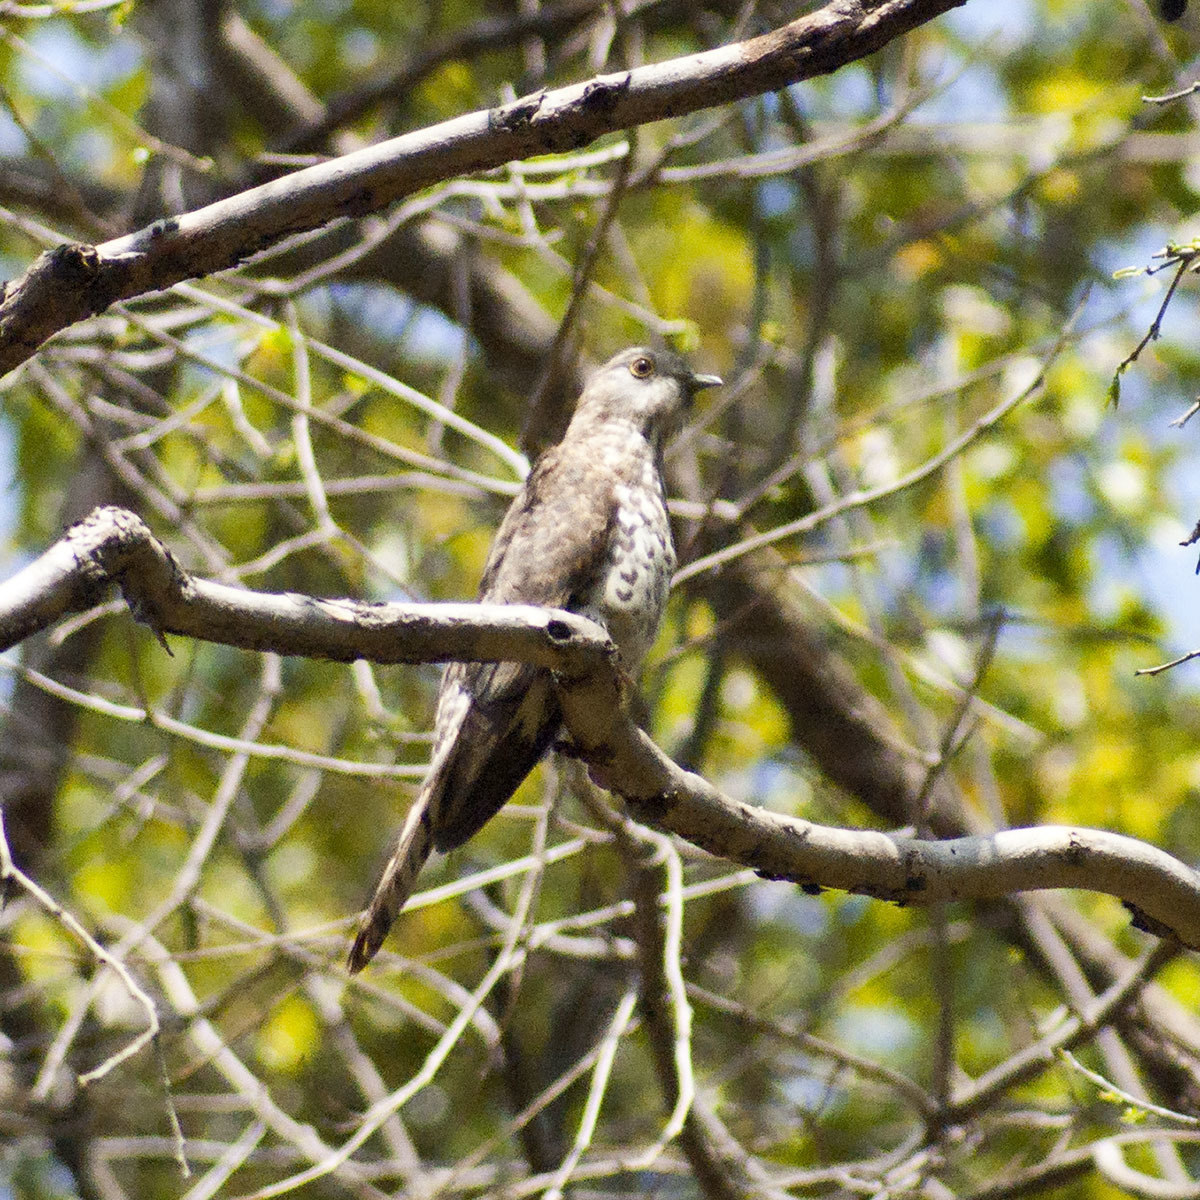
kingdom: Animalia
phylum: Chordata
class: Aves
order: Cuculiformes
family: Cuculidae
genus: Cuculus
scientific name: Cuculus varius
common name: Common hawk cuckoo
